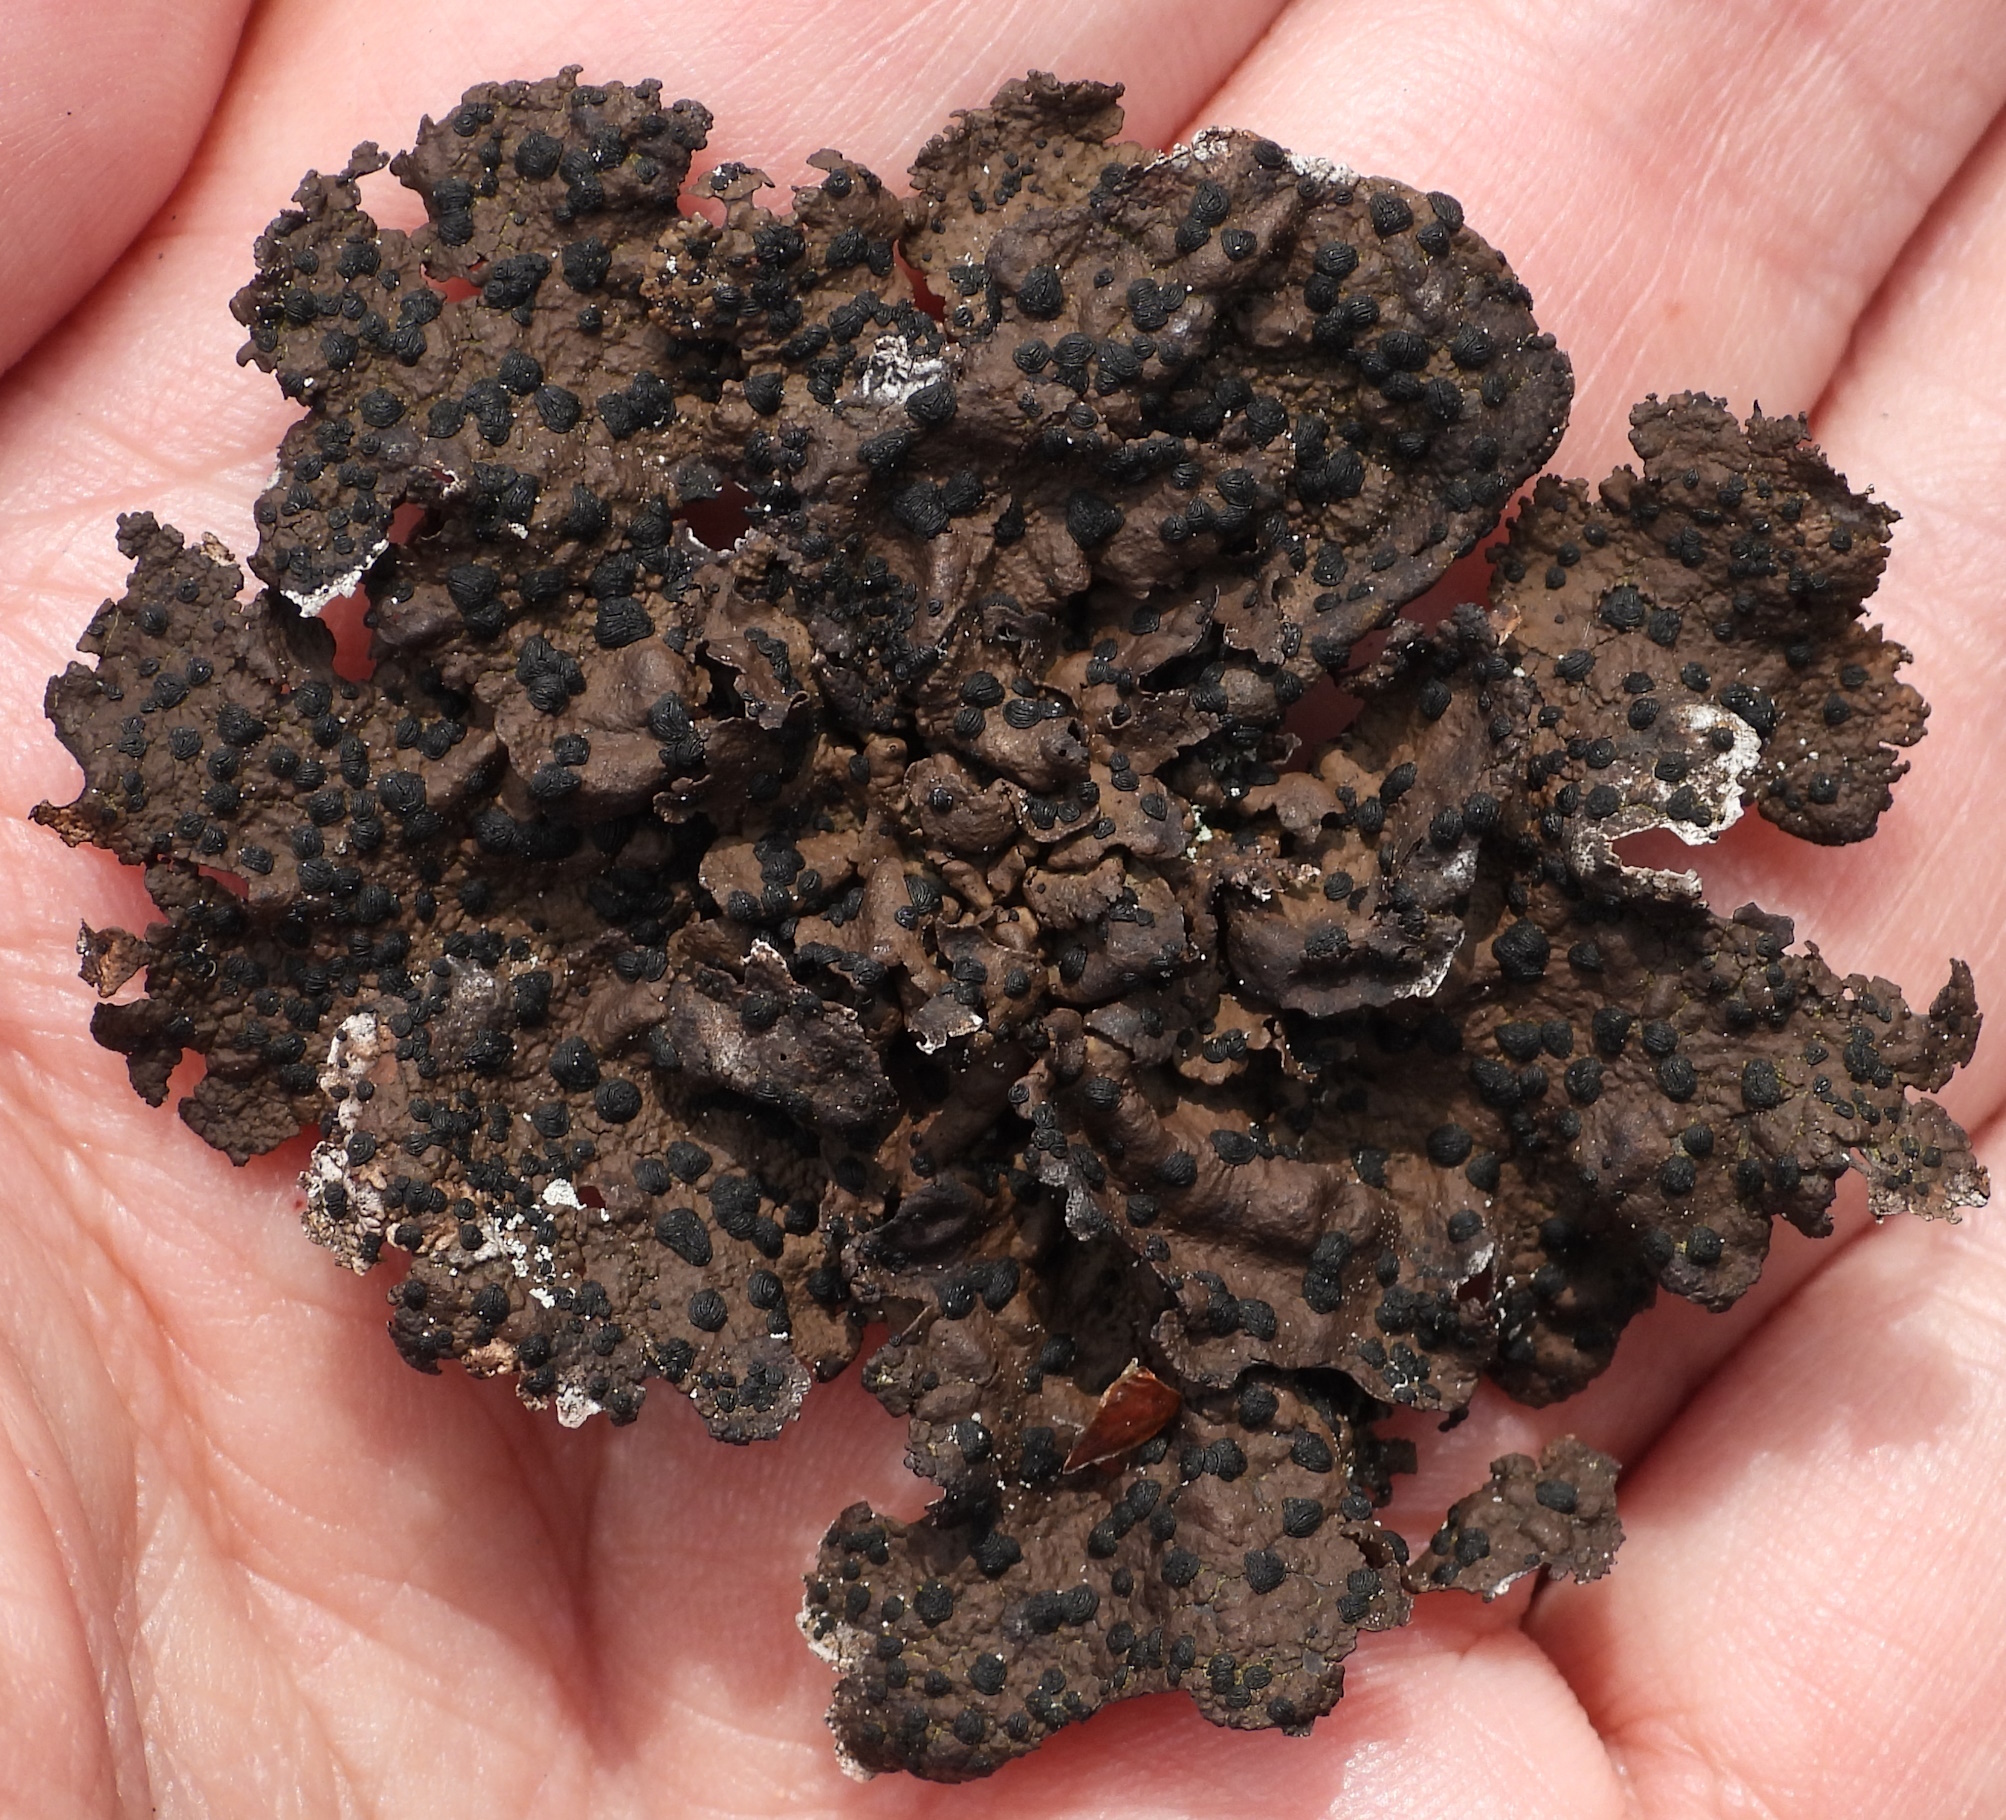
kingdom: Fungi
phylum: Ascomycota
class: Lecanoromycetes
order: Umbilicariales
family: Umbilicariaceae
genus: Umbilicaria
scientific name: Umbilicaria torrefacta
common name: Punctured rock tripe lichen
